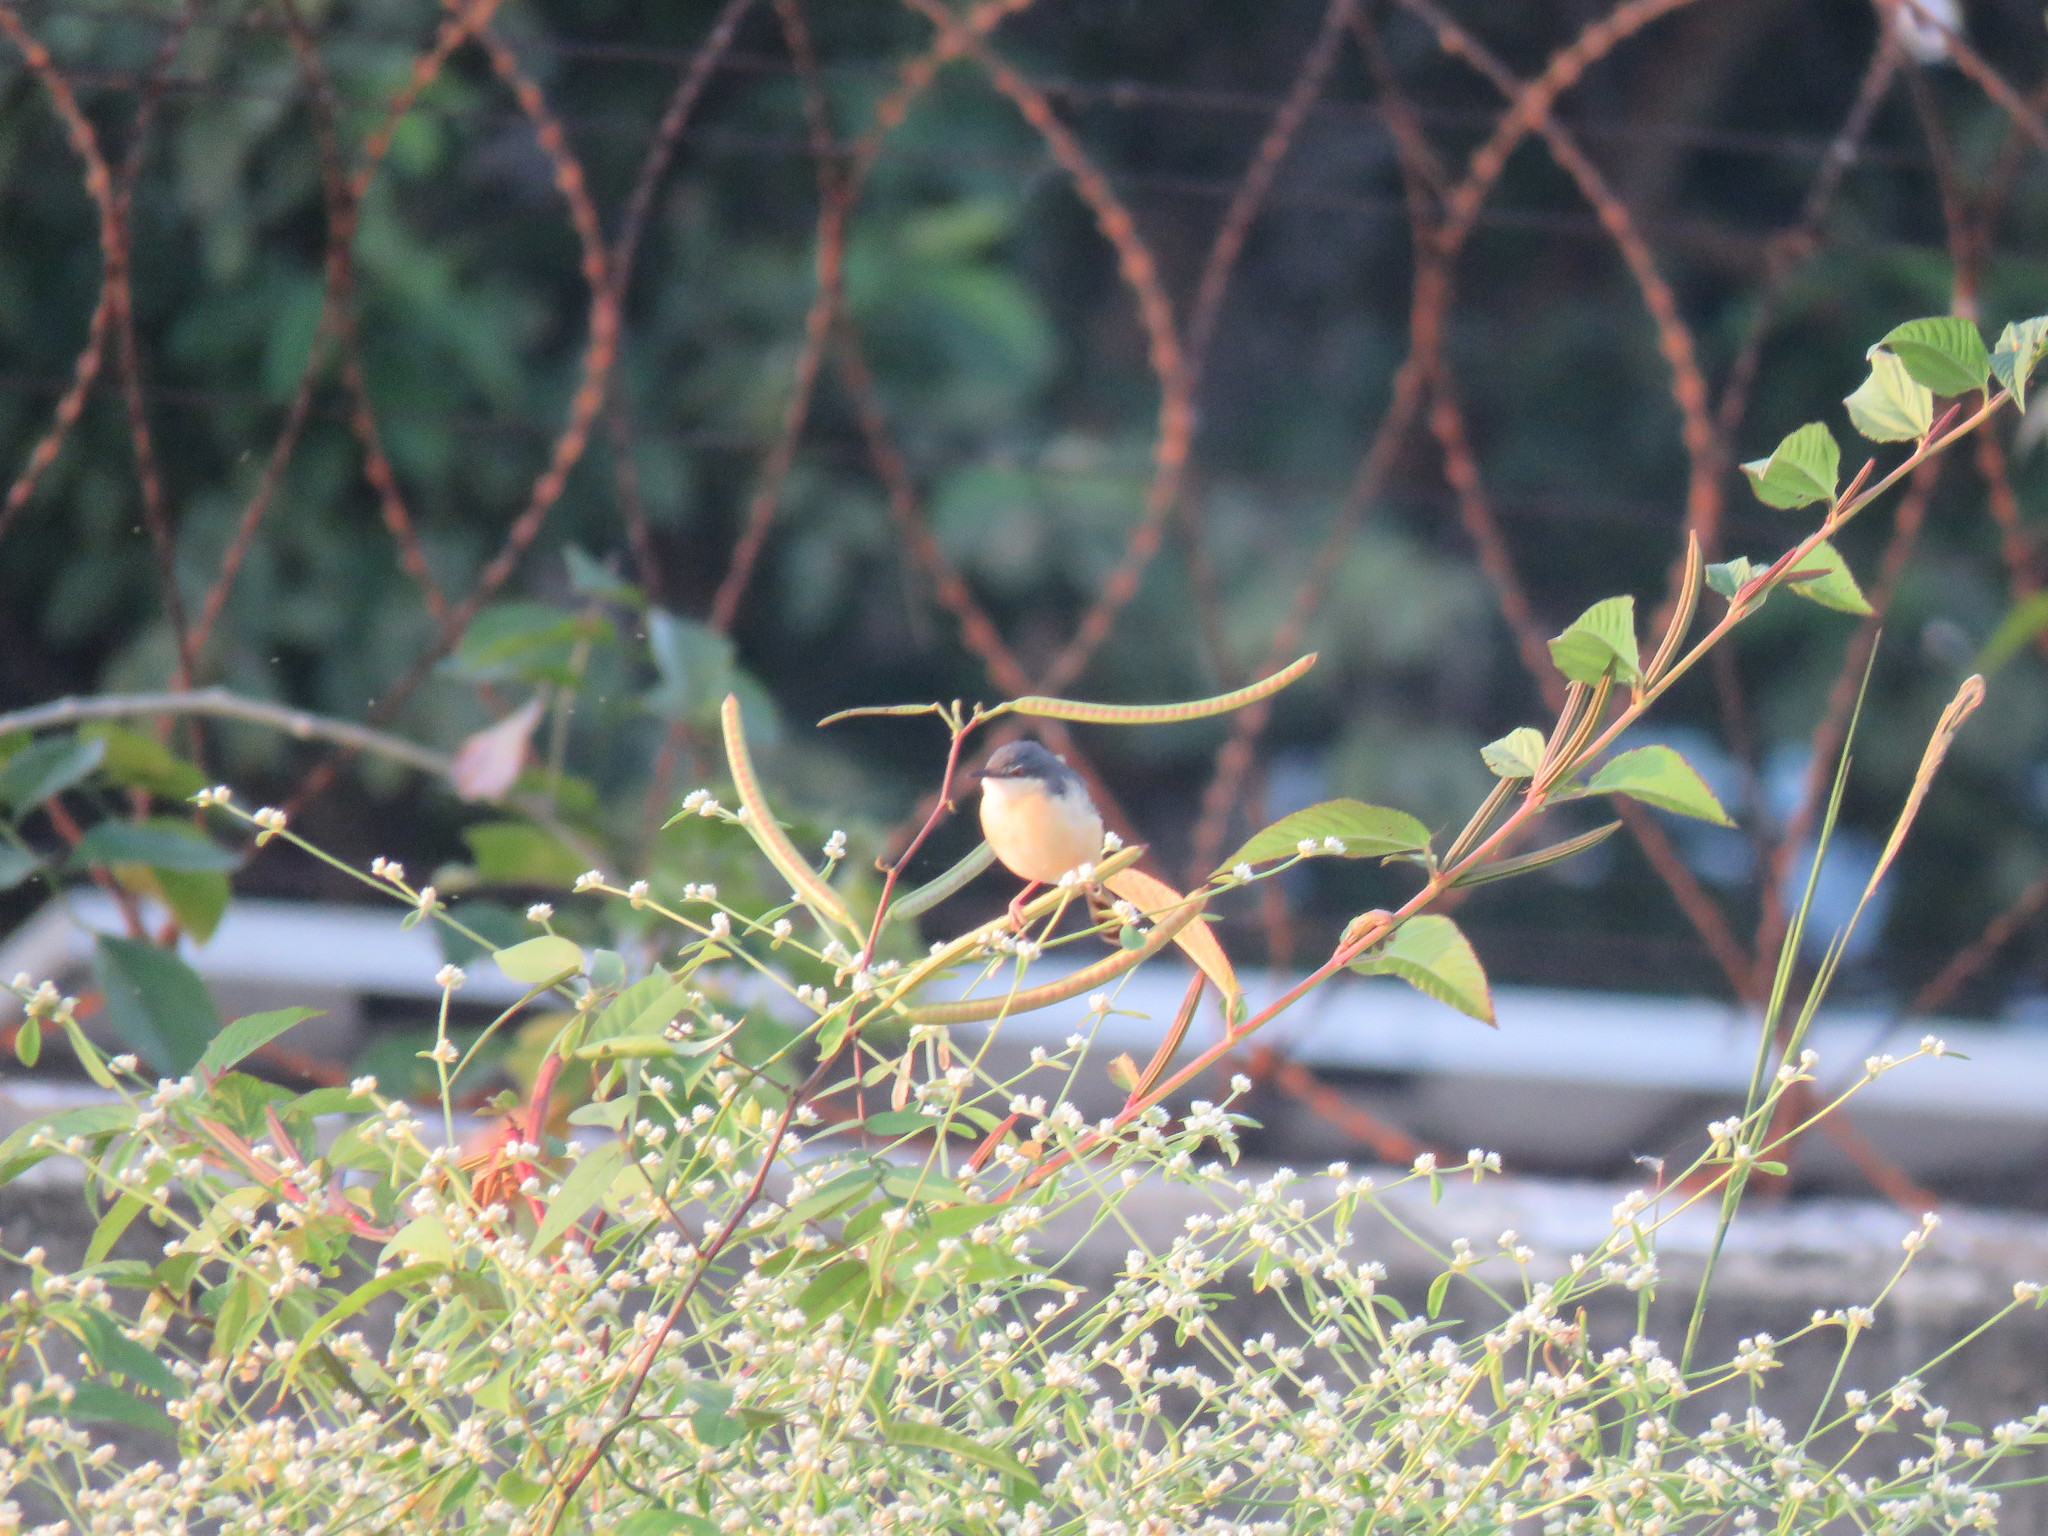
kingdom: Animalia
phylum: Chordata
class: Aves
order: Passeriformes
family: Cisticolidae
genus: Prinia
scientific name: Prinia socialis
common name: Ashy prinia
